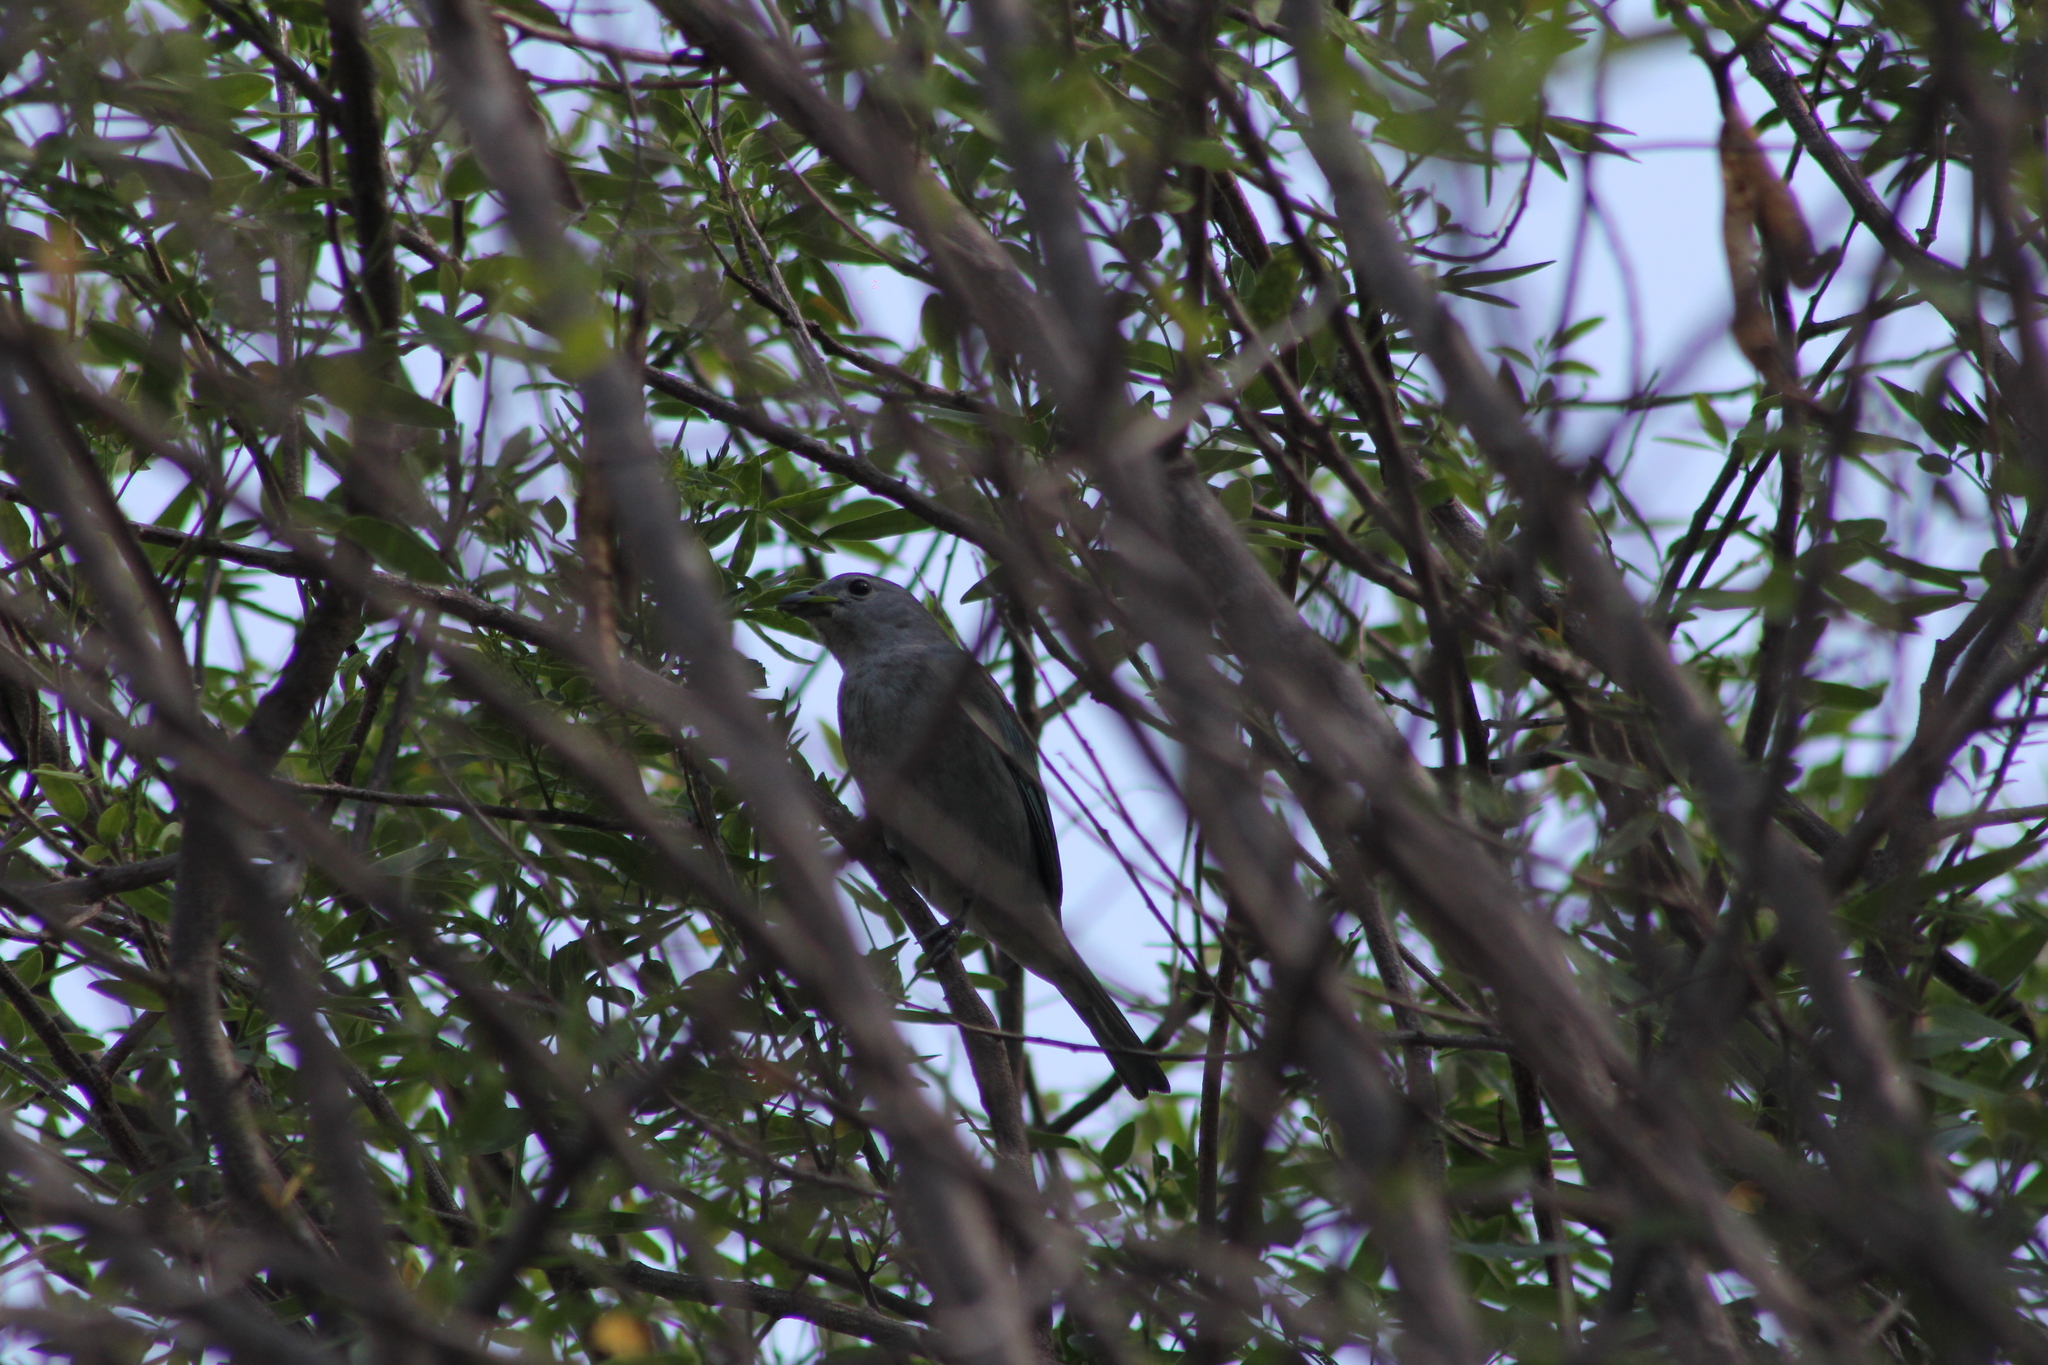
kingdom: Animalia
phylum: Chordata
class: Aves
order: Passeriformes
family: Thraupidae
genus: Thraupis
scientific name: Thraupis sayaca
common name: Sayaca tanager
